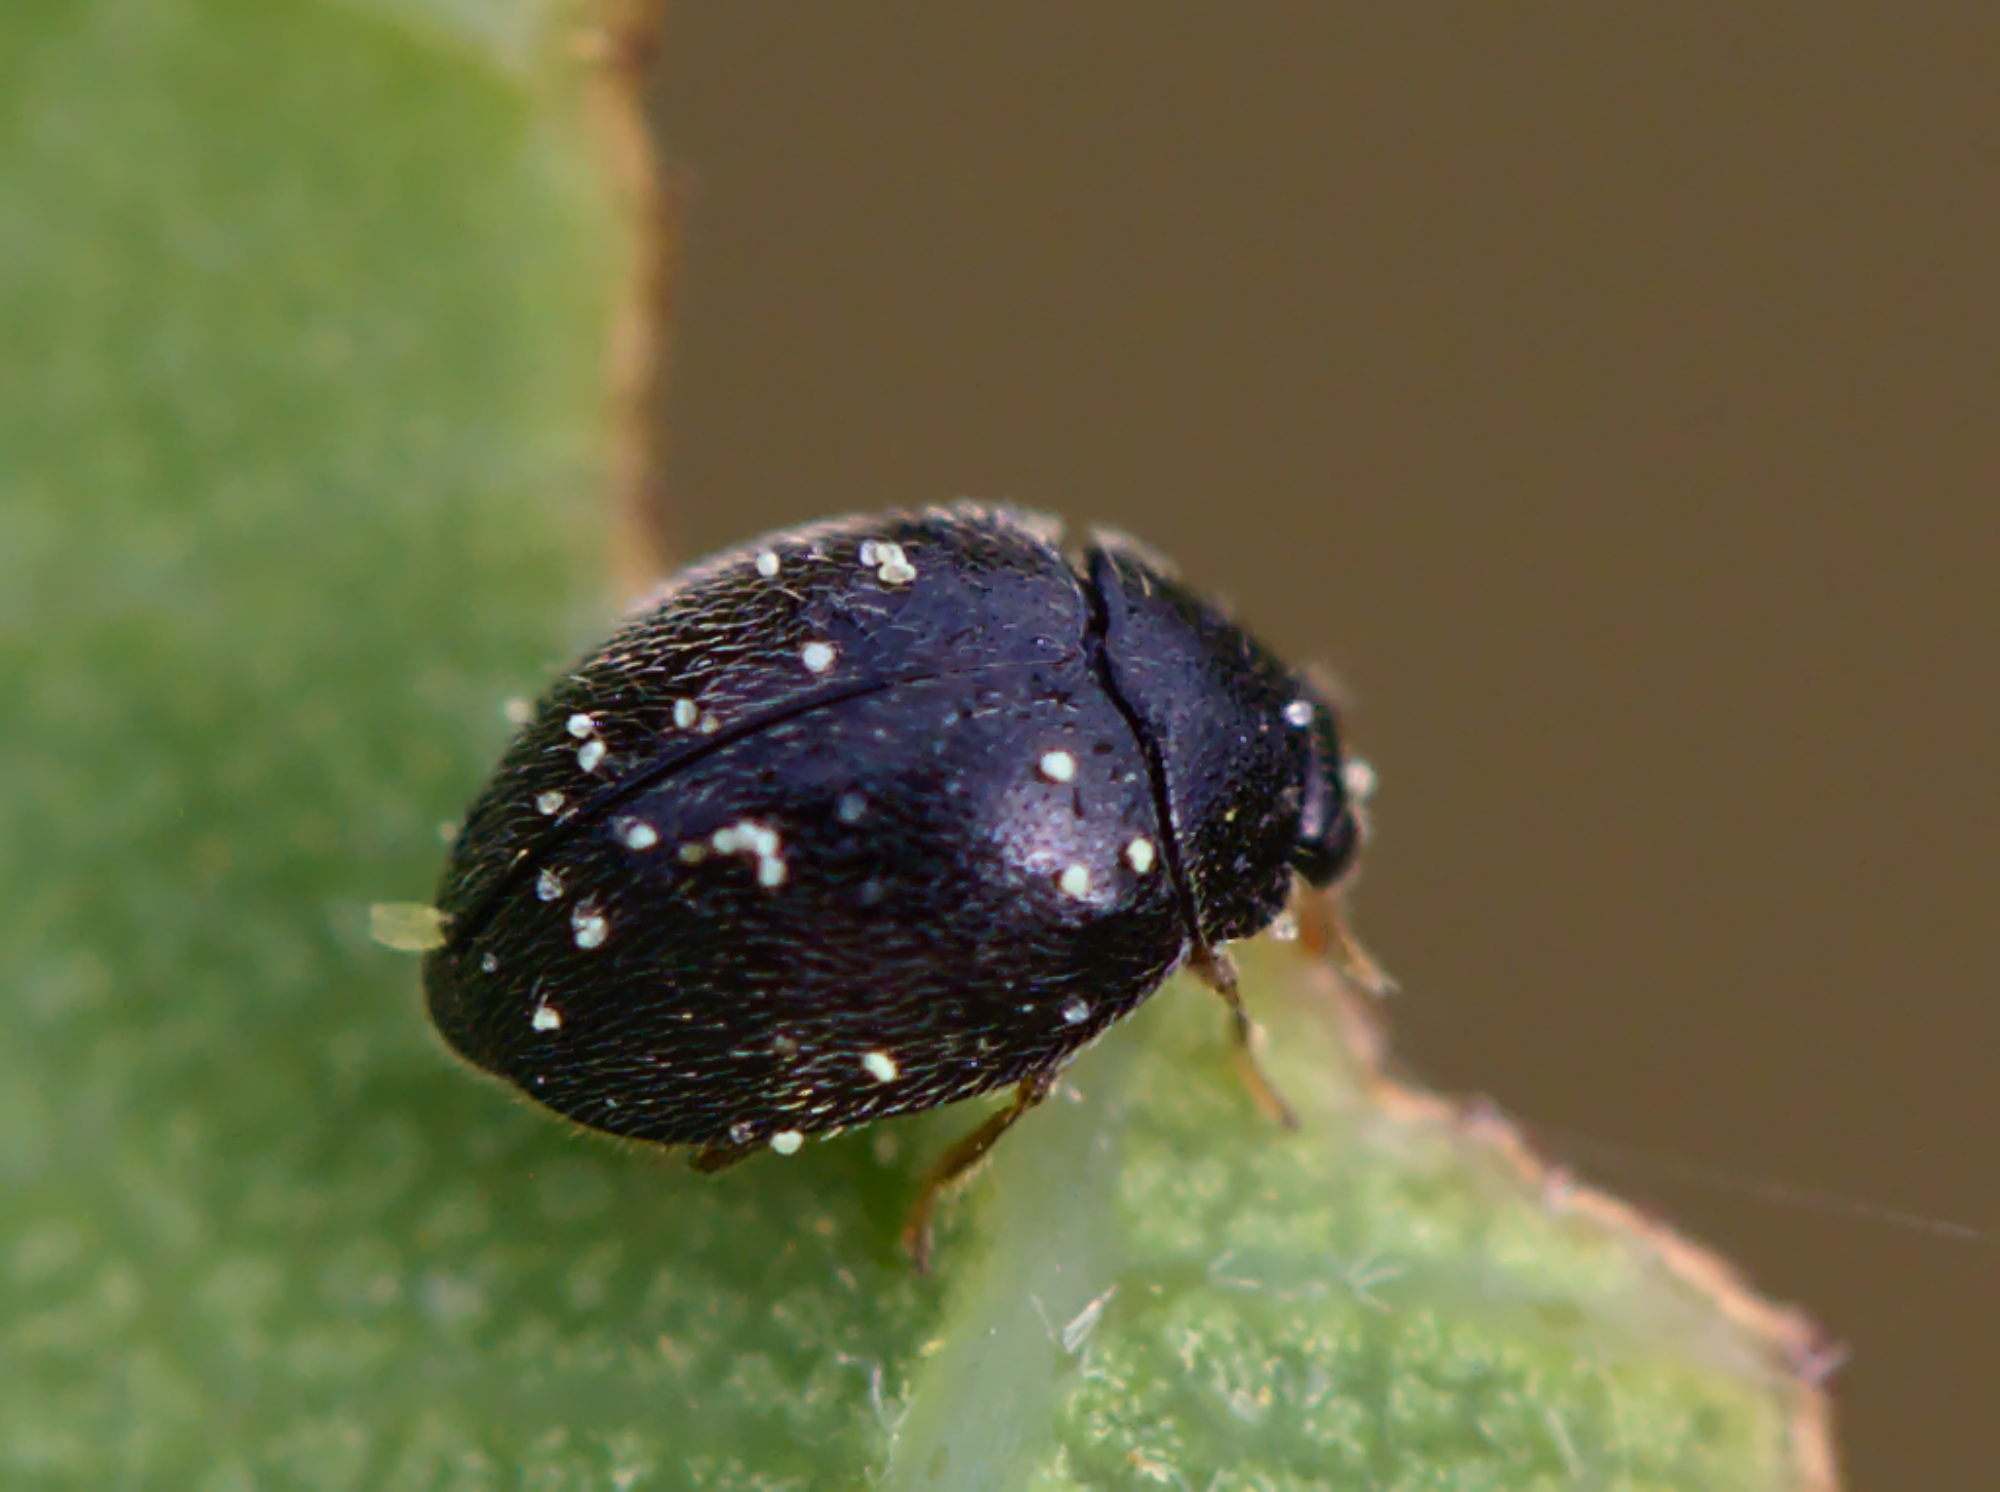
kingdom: Animalia
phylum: Arthropoda
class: Insecta
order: Coleoptera
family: Coccinellidae
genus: Stethorus
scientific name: Stethorus pusillus
